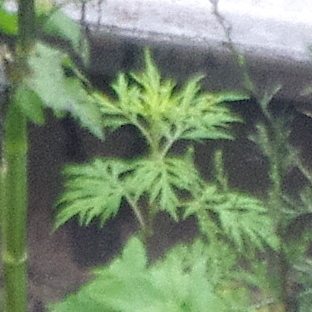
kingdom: Plantae
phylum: Tracheophyta
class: Magnoliopsida
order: Asterales
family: Asteraceae
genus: Artemisia
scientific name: Artemisia vulgaris
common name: Mugwort
